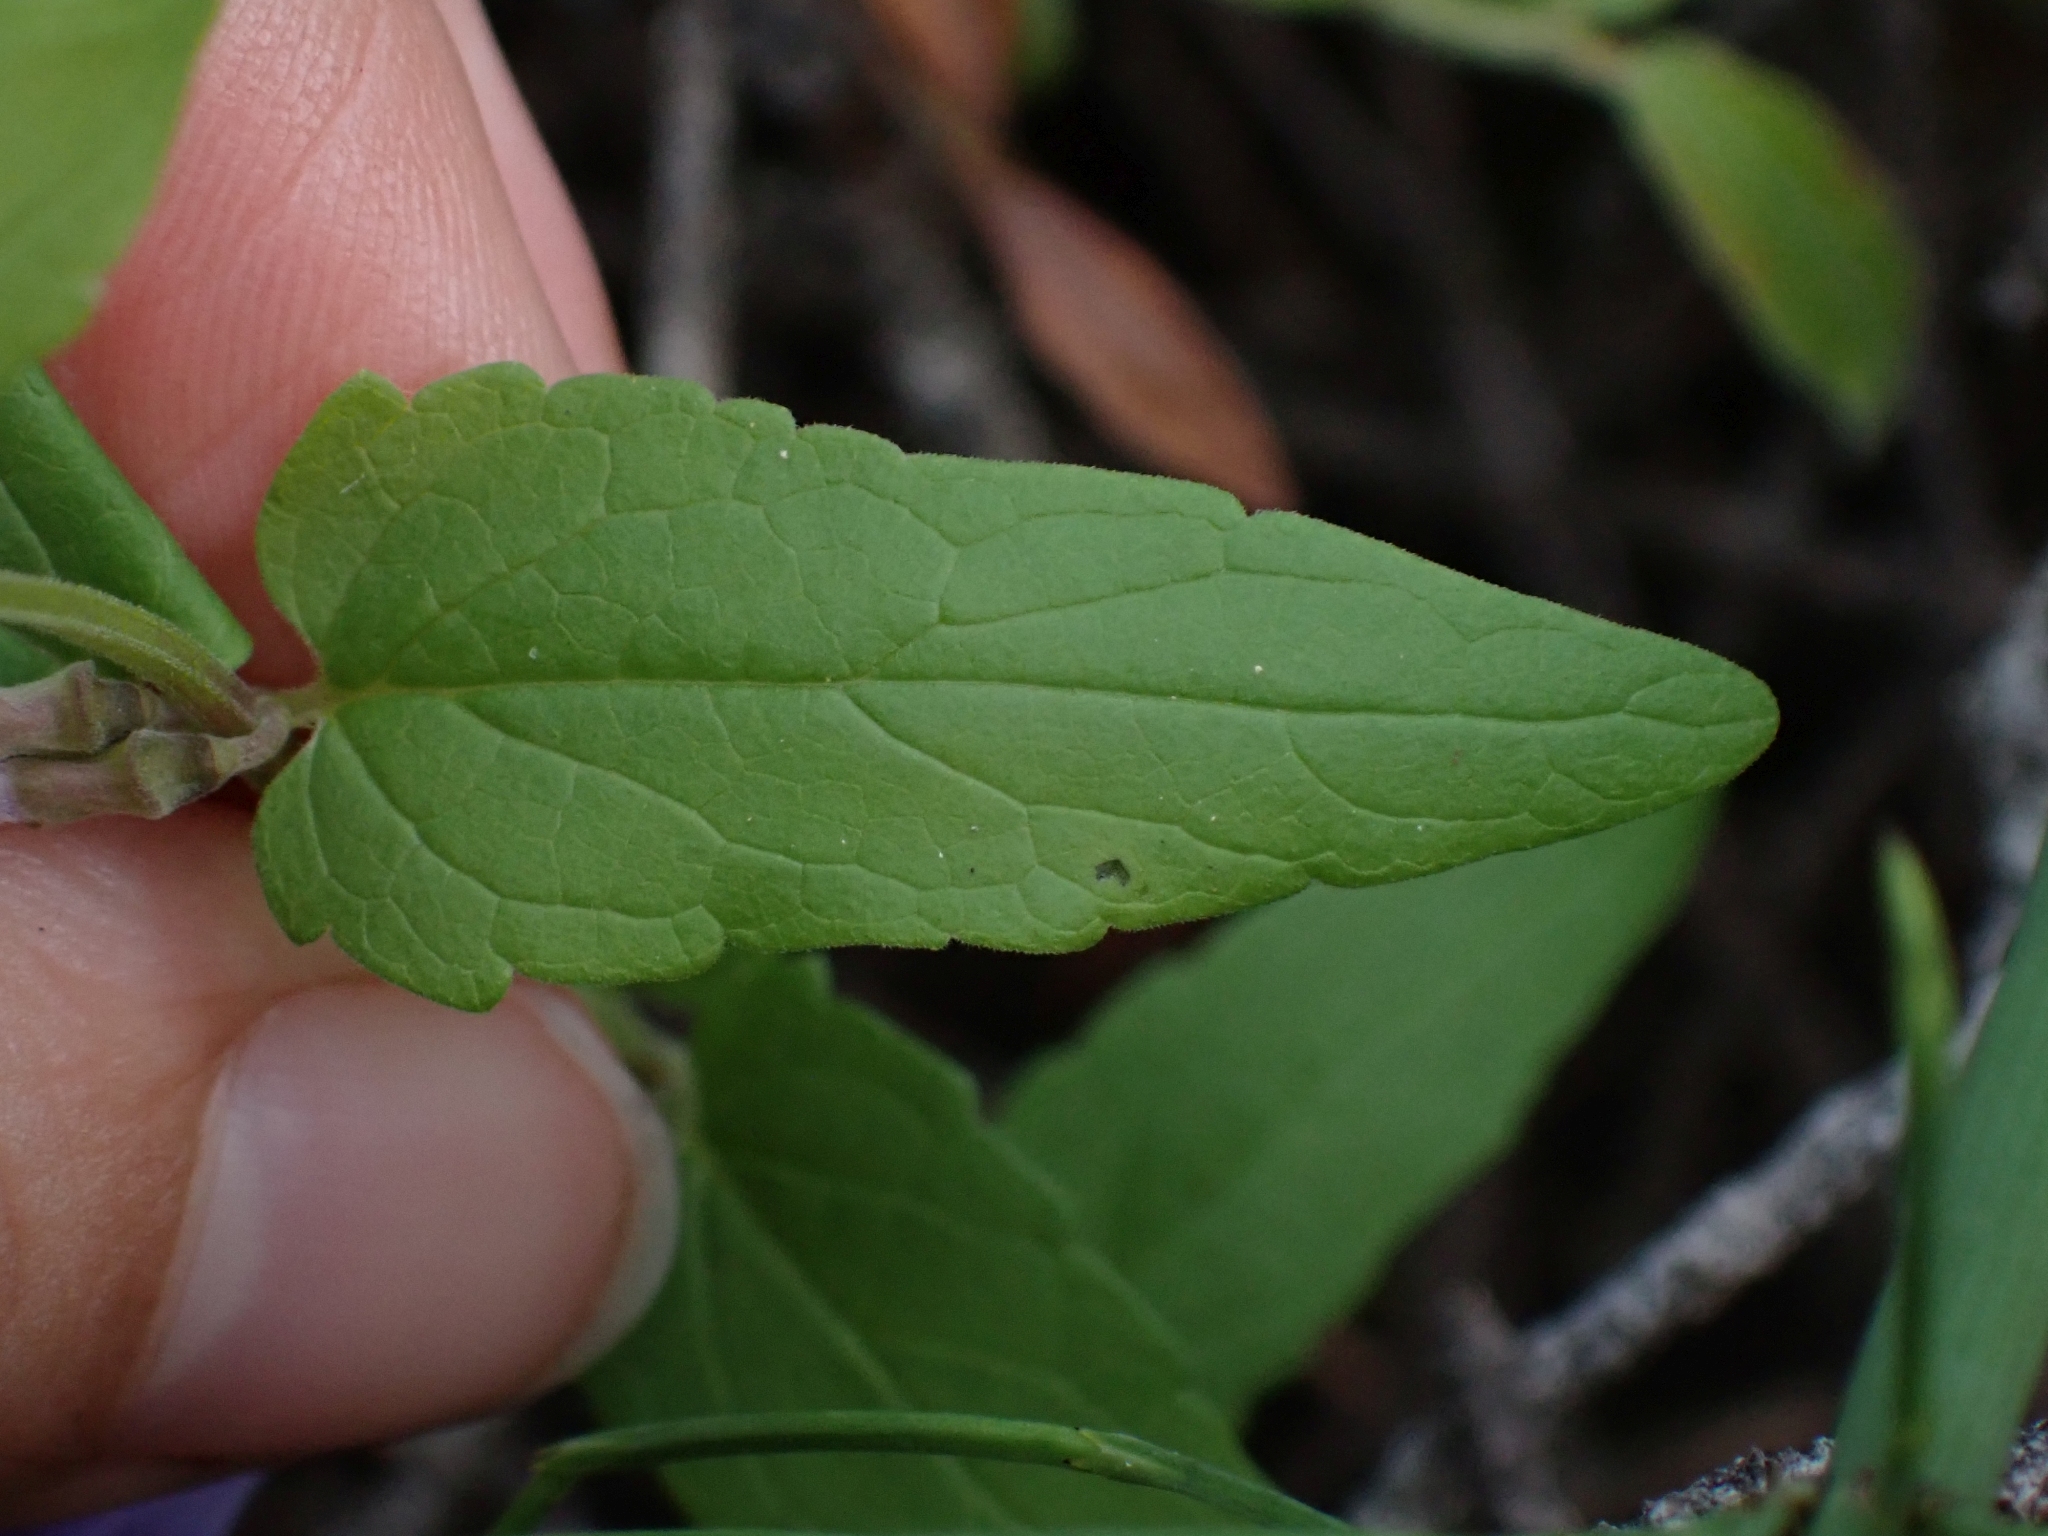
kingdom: Plantae
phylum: Tracheophyta
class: Magnoliopsida
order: Lamiales
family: Lamiaceae
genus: Scutellaria
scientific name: Scutellaria galericulata
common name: Skullcap
